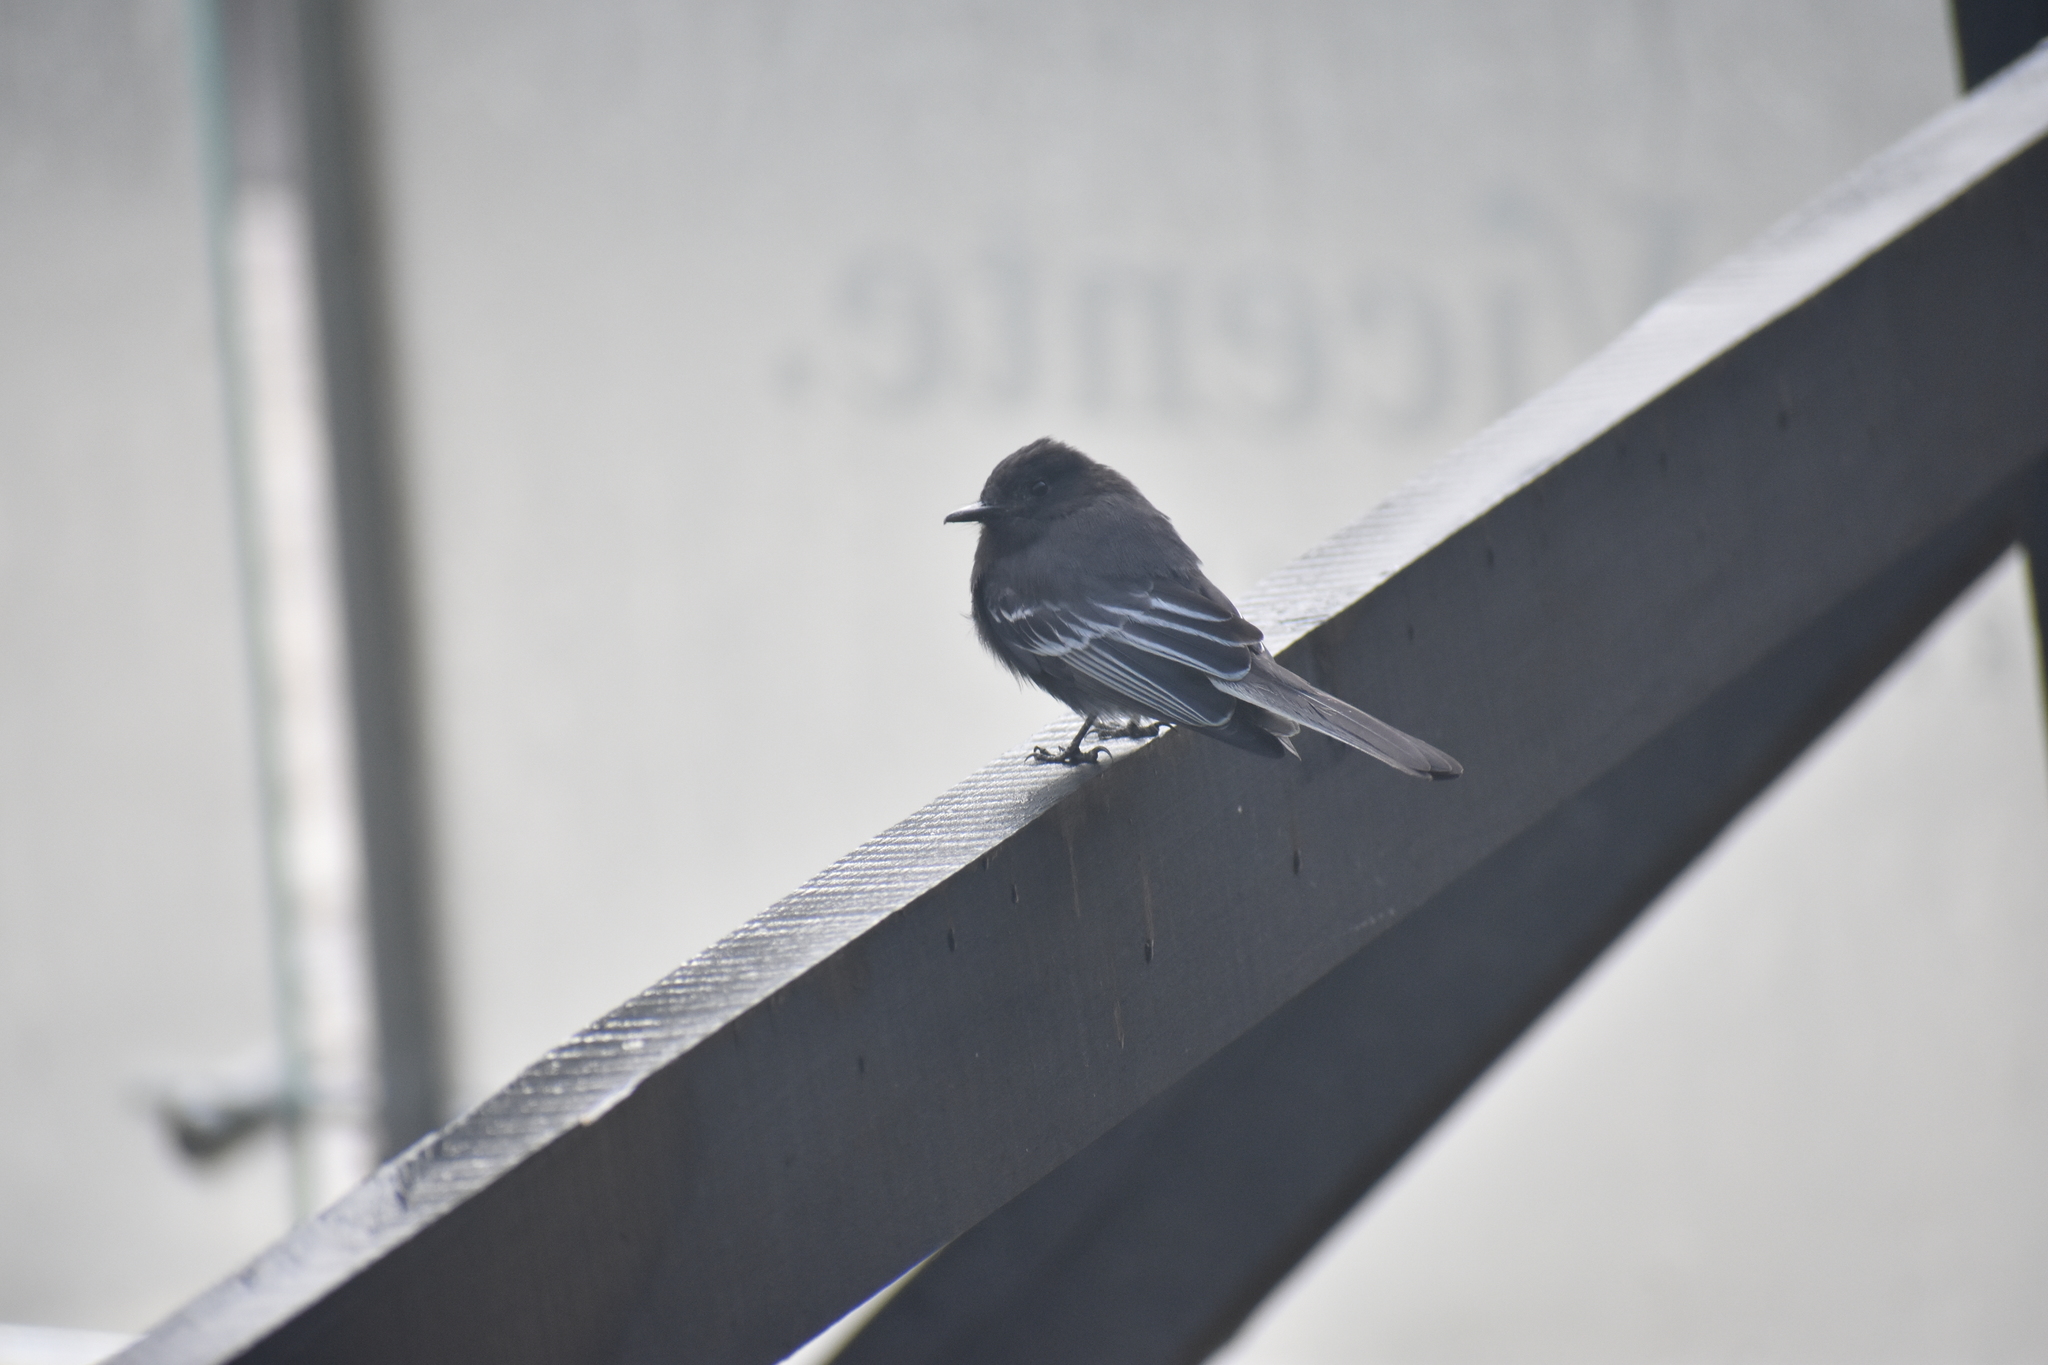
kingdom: Animalia
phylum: Chordata
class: Aves
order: Passeriformes
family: Tyrannidae
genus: Sayornis
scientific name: Sayornis nigricans
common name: Black phoebe
